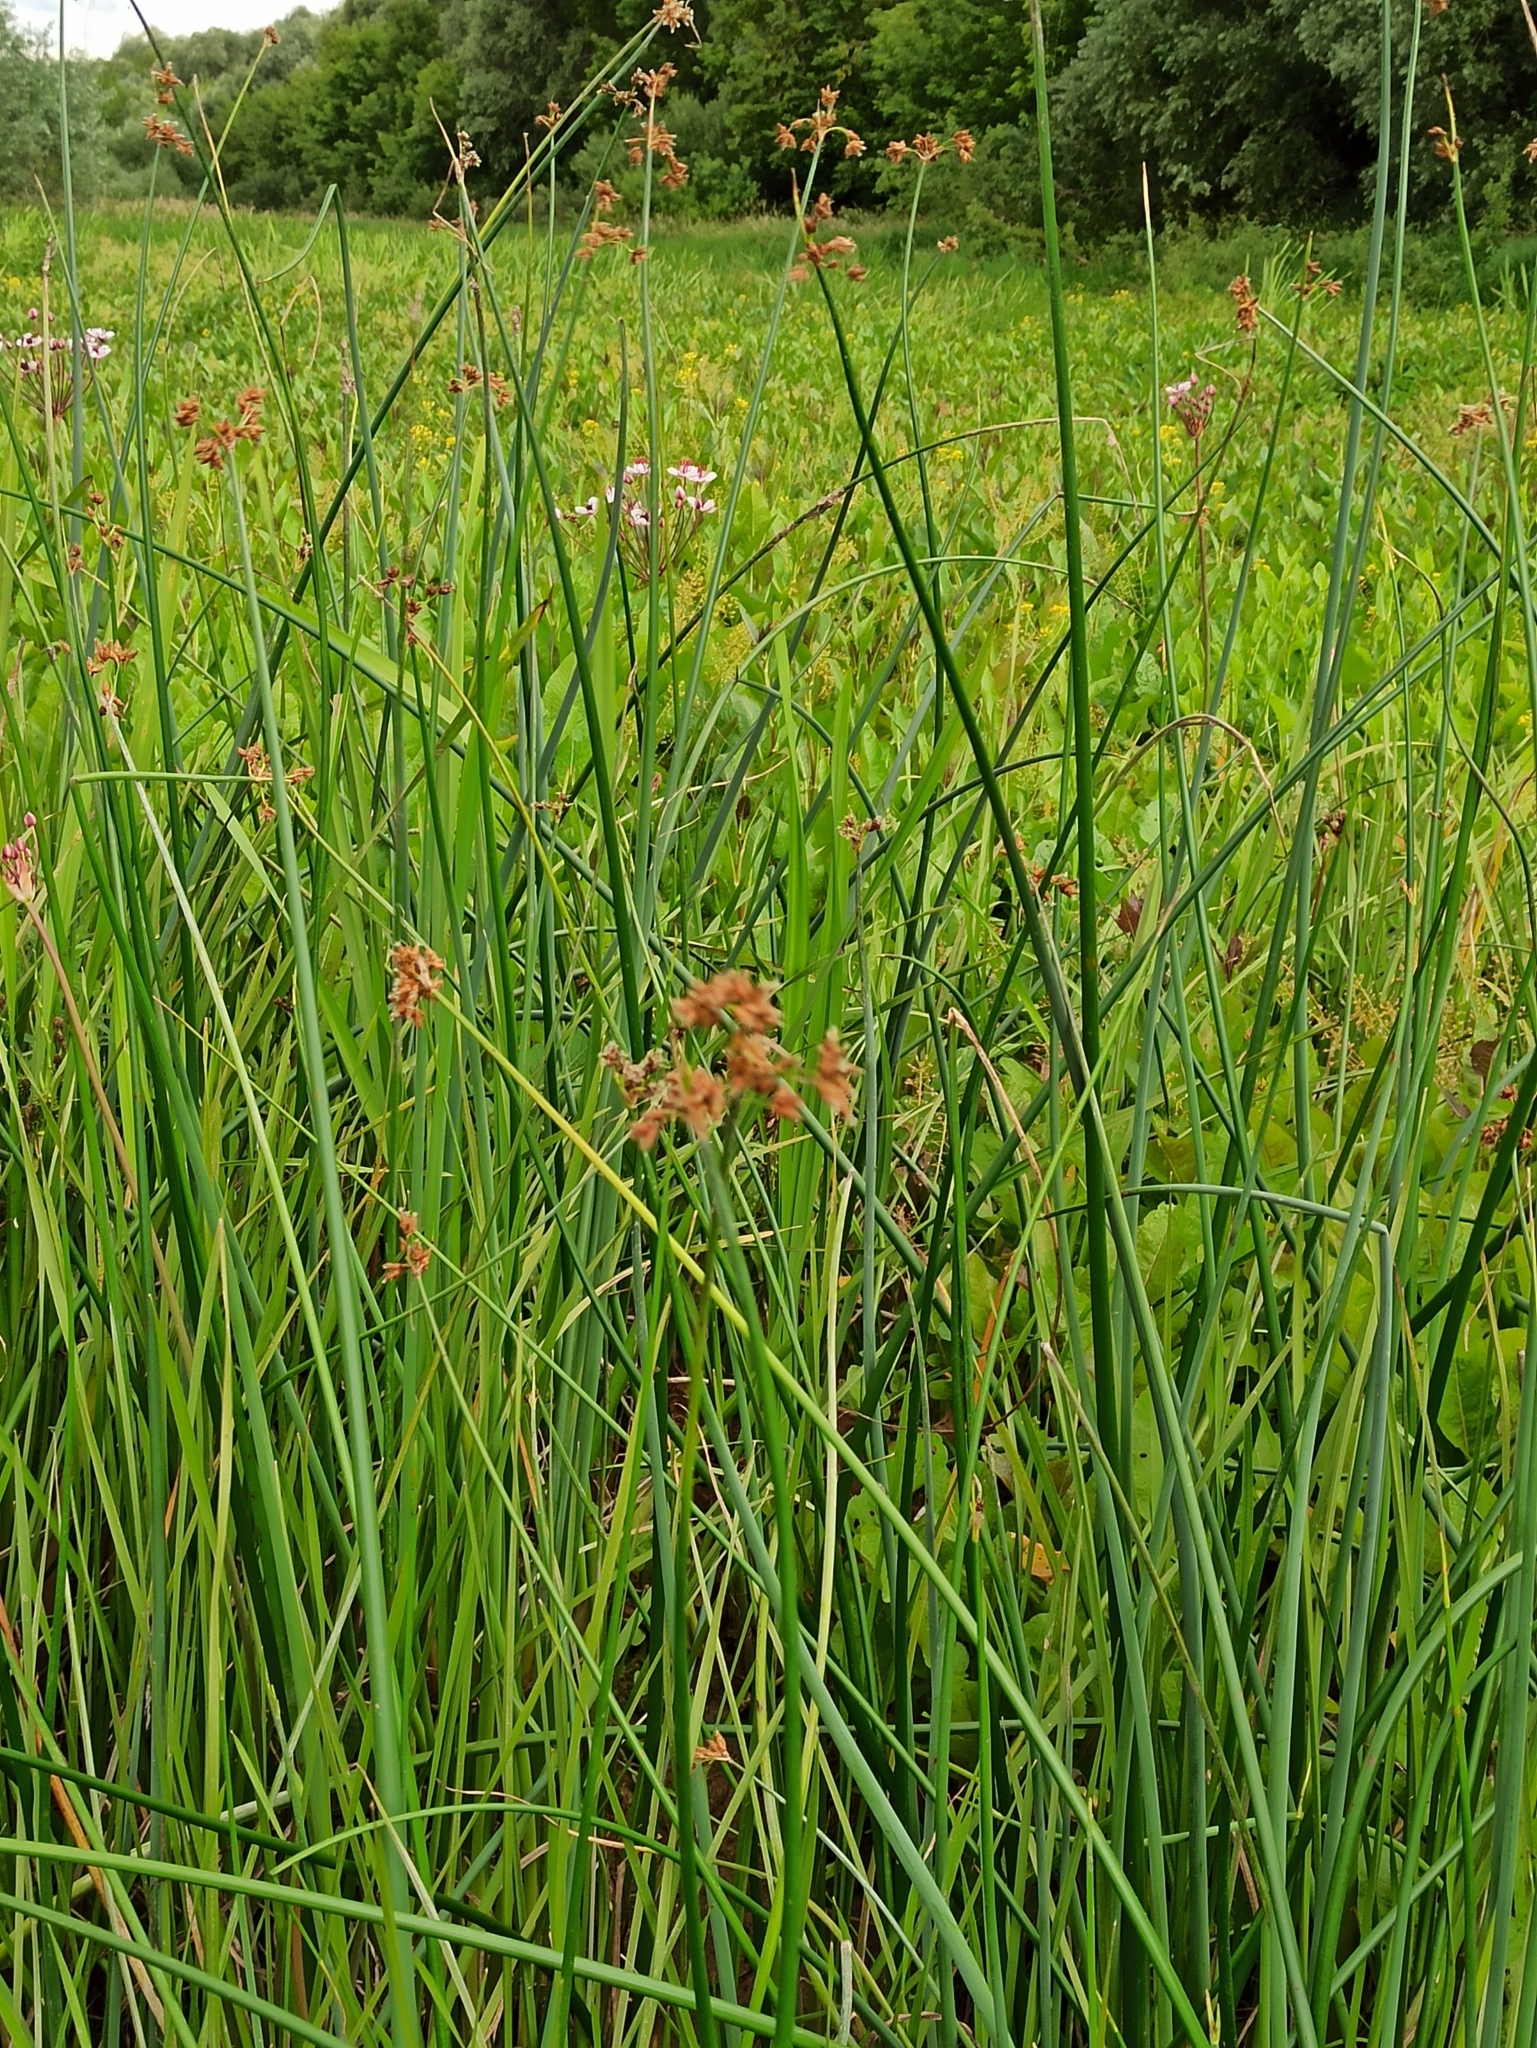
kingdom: Plantae
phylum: Tracheophyta
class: Liliopsida
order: Poales
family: Cyperaceae
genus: Schoenoplectus
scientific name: Schoenoplectus lacustris
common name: Common club-rush
